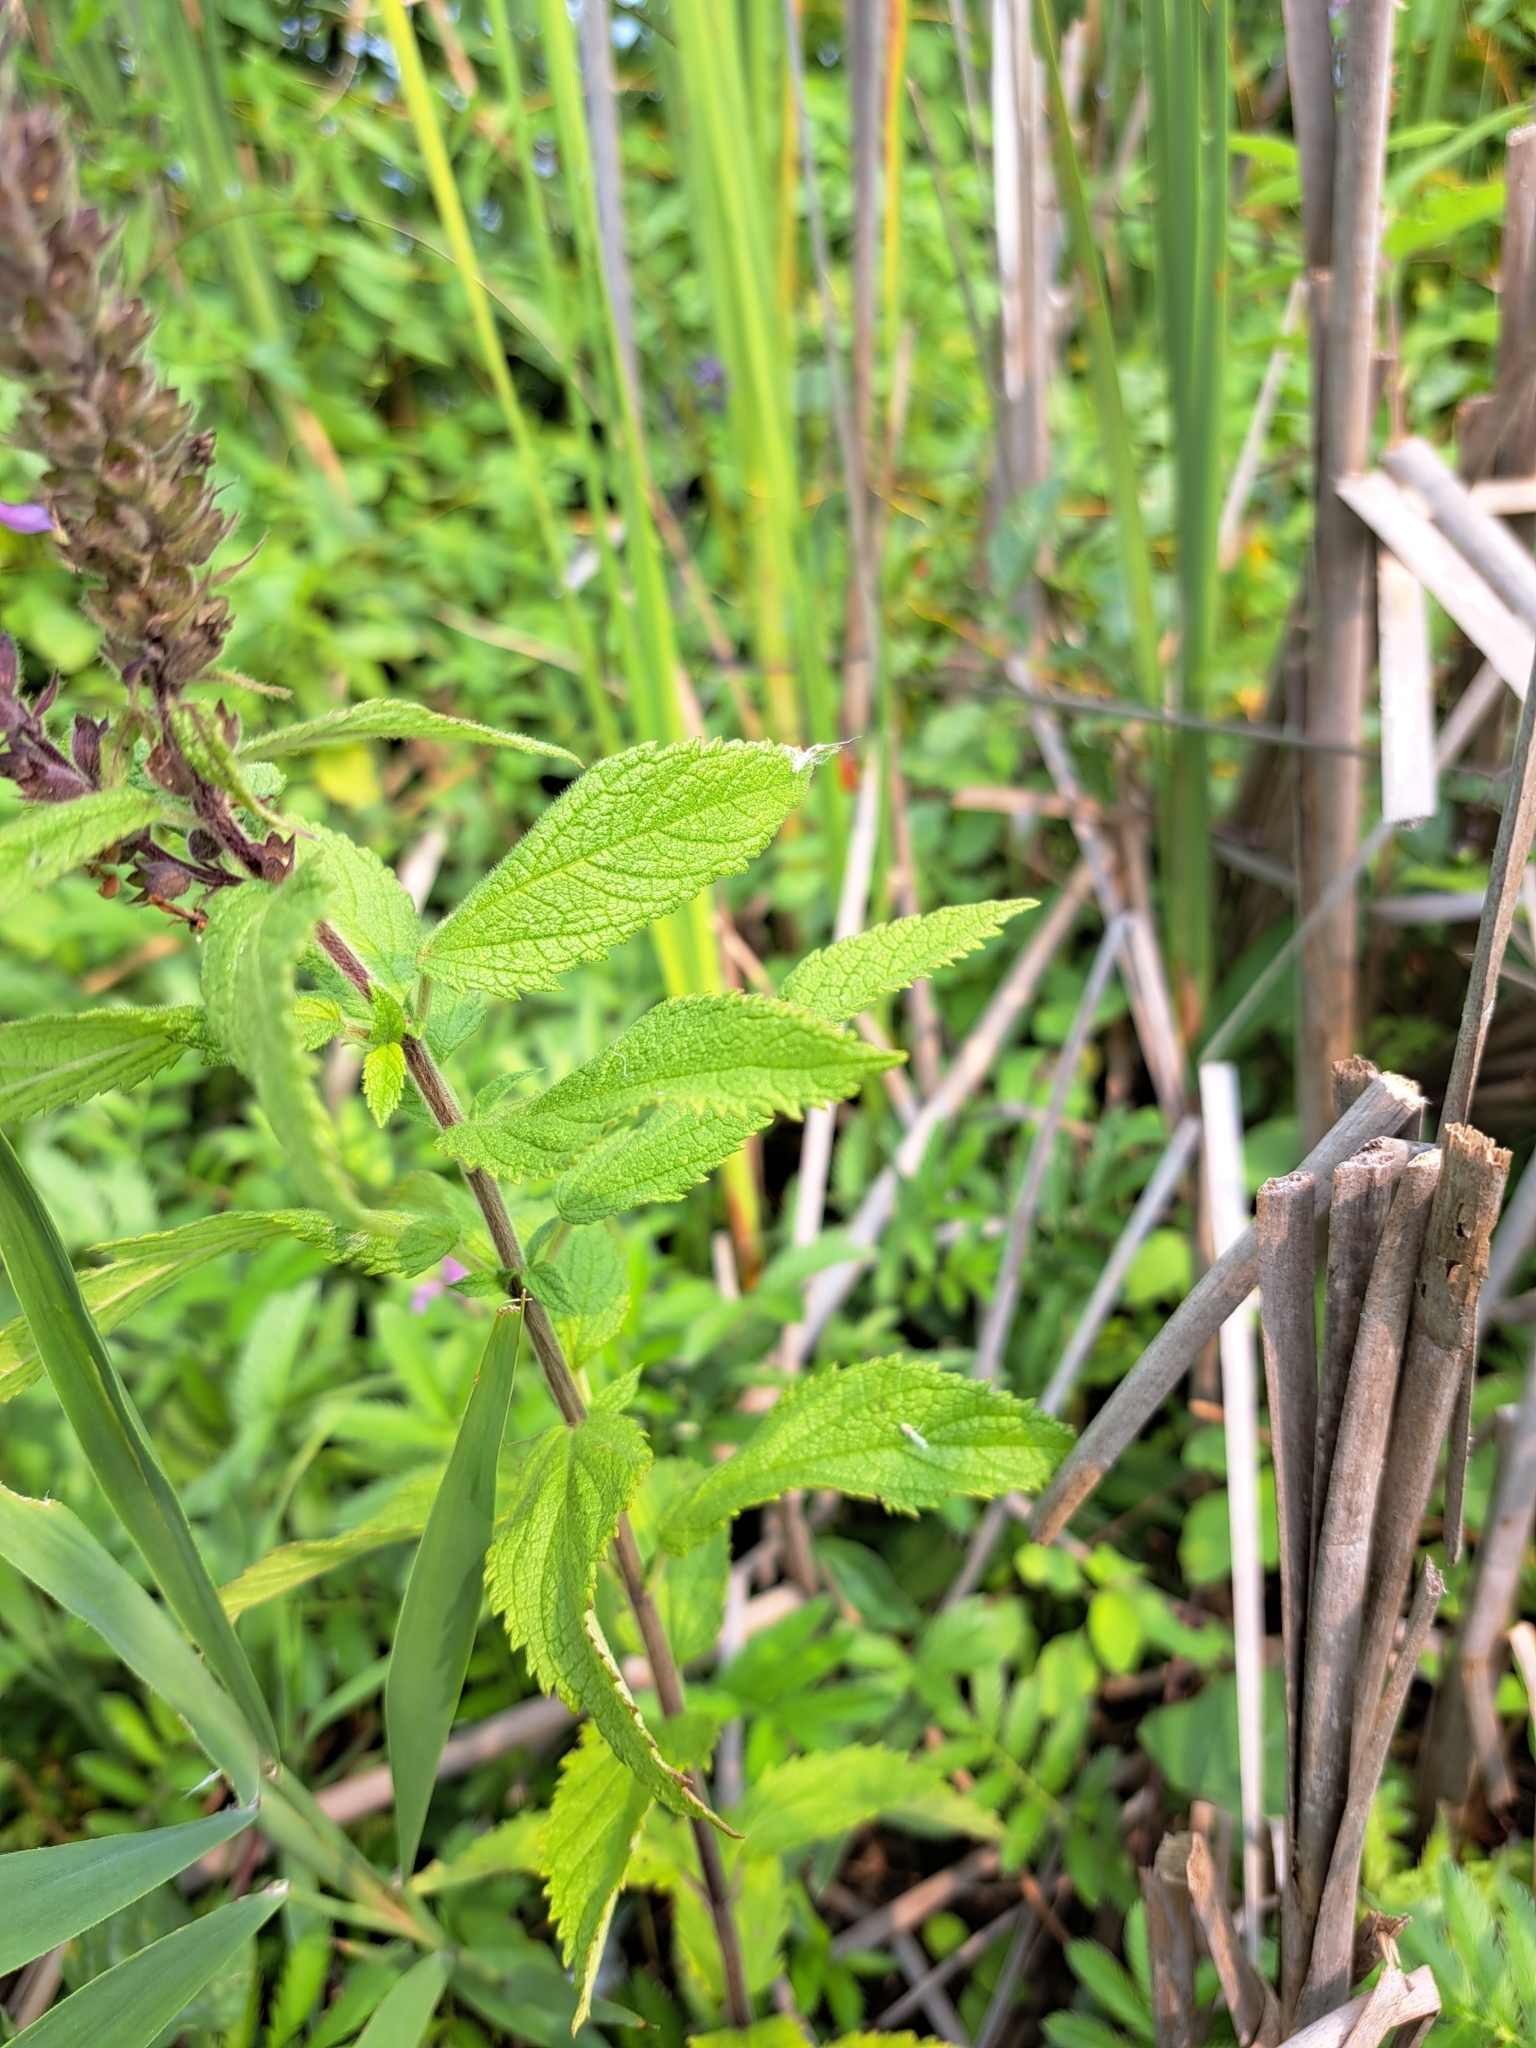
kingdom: Plantae
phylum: Tracheophyta
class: Magnoliopsida
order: Lamiales
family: Lamiaceae
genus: Teucrium
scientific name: Teucrium canadense
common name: American germander
